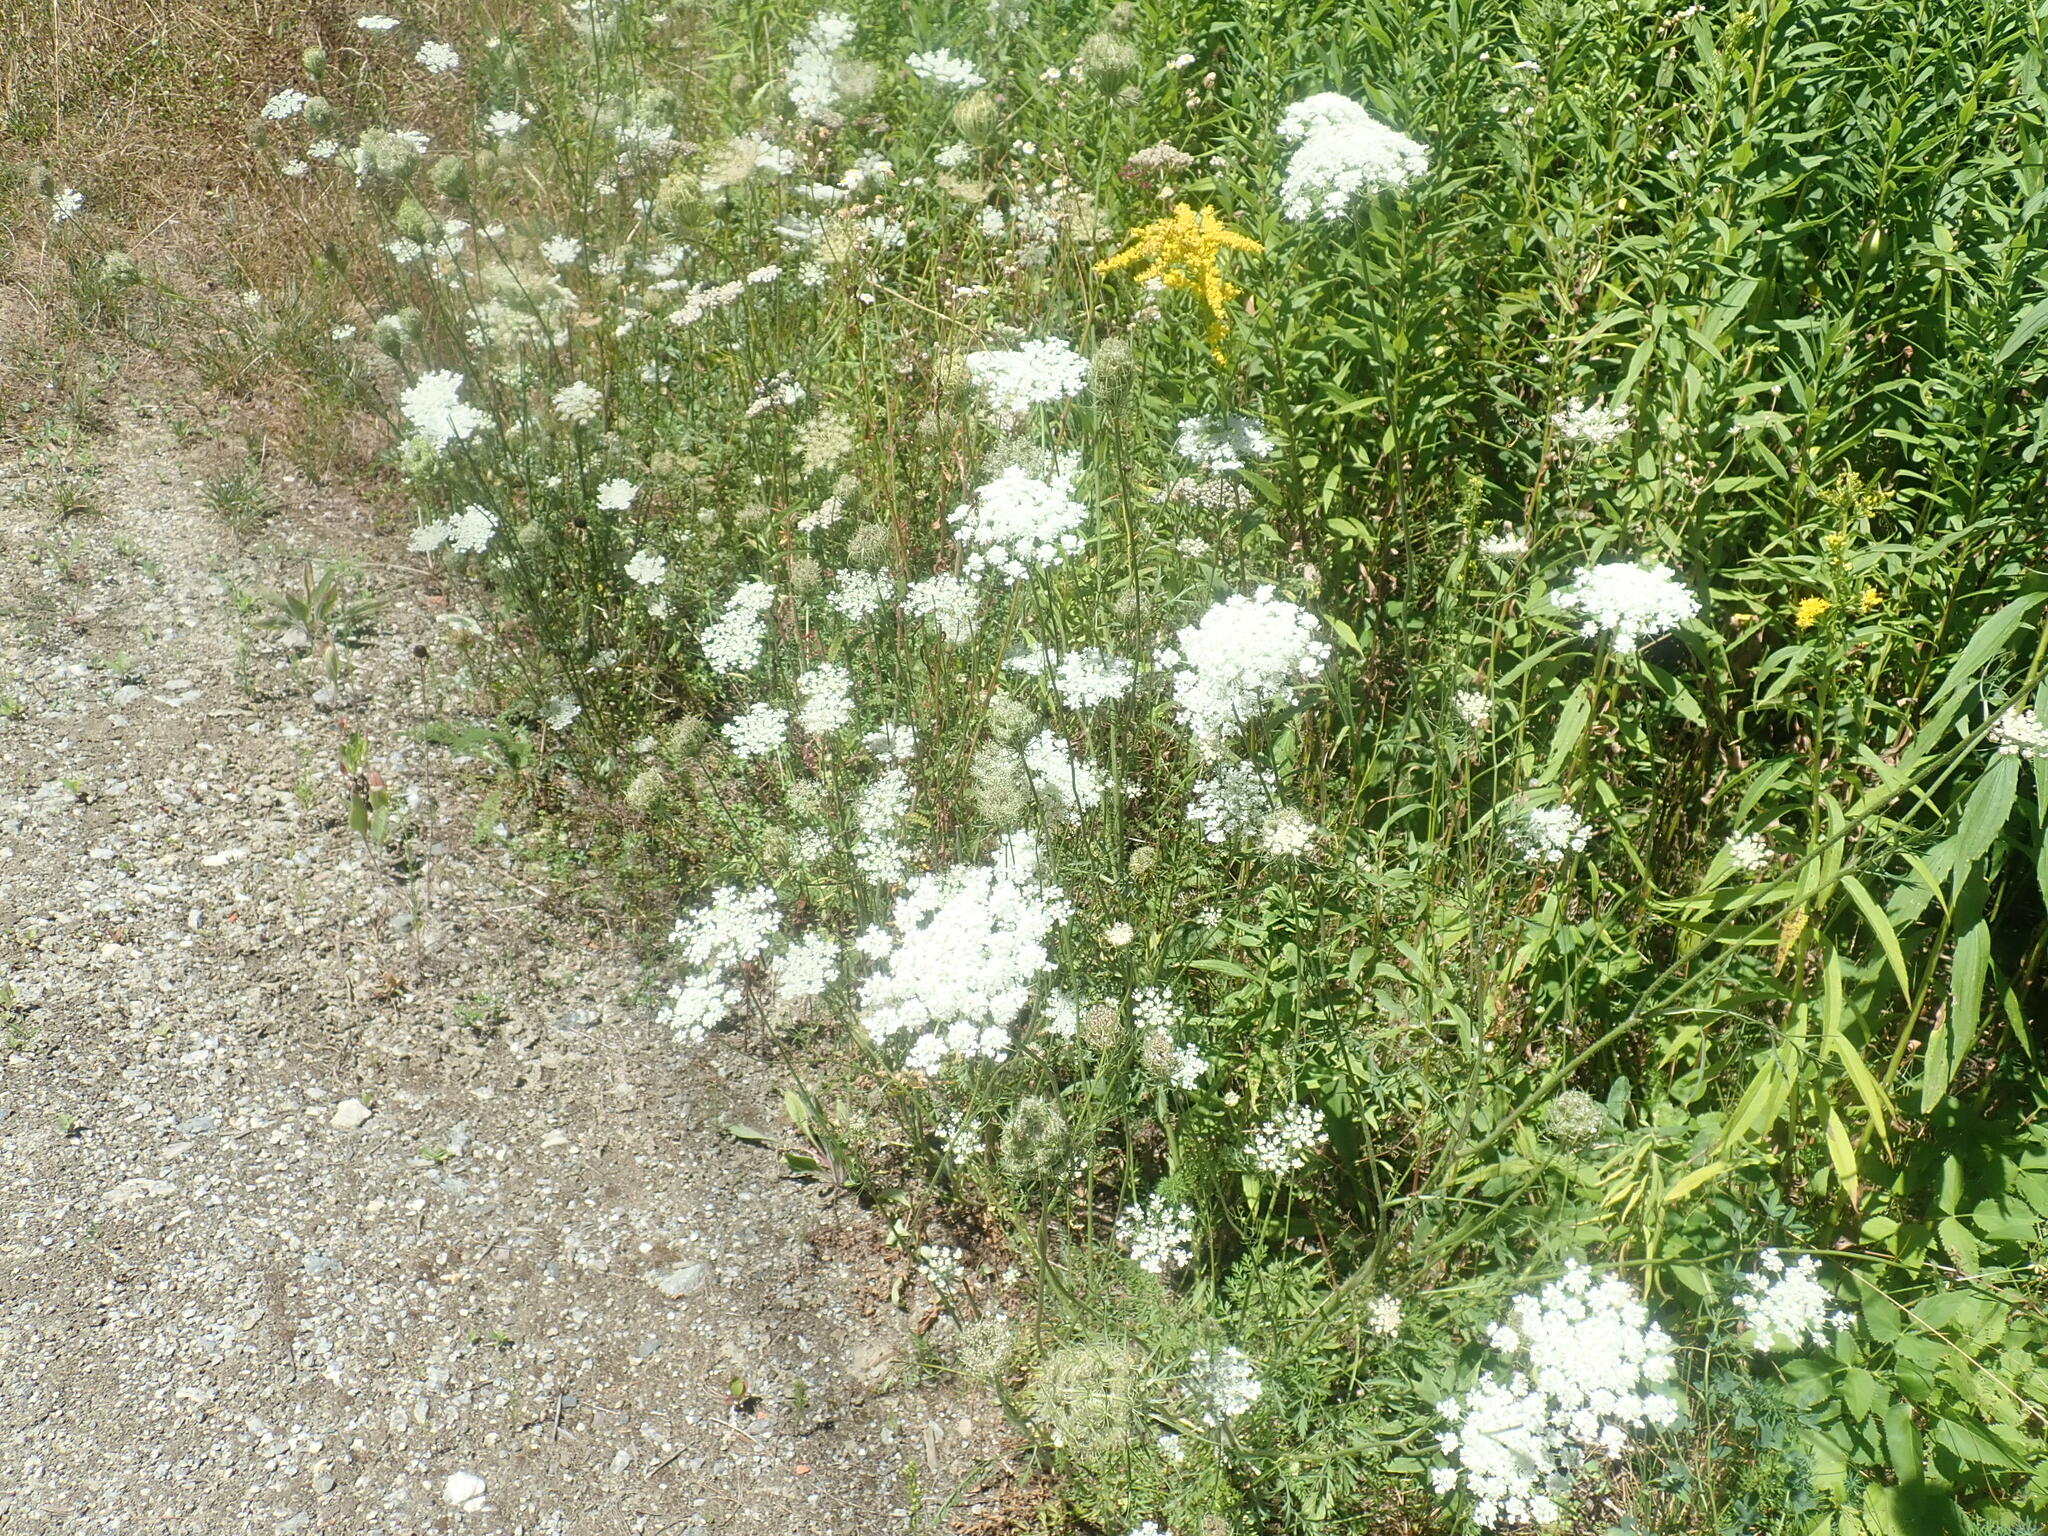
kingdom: Plantae
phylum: Tracheophyta
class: Magnoliopsida
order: Apiales
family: Apiaceae
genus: Daucus
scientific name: Daucus carota
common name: Wild carrot
